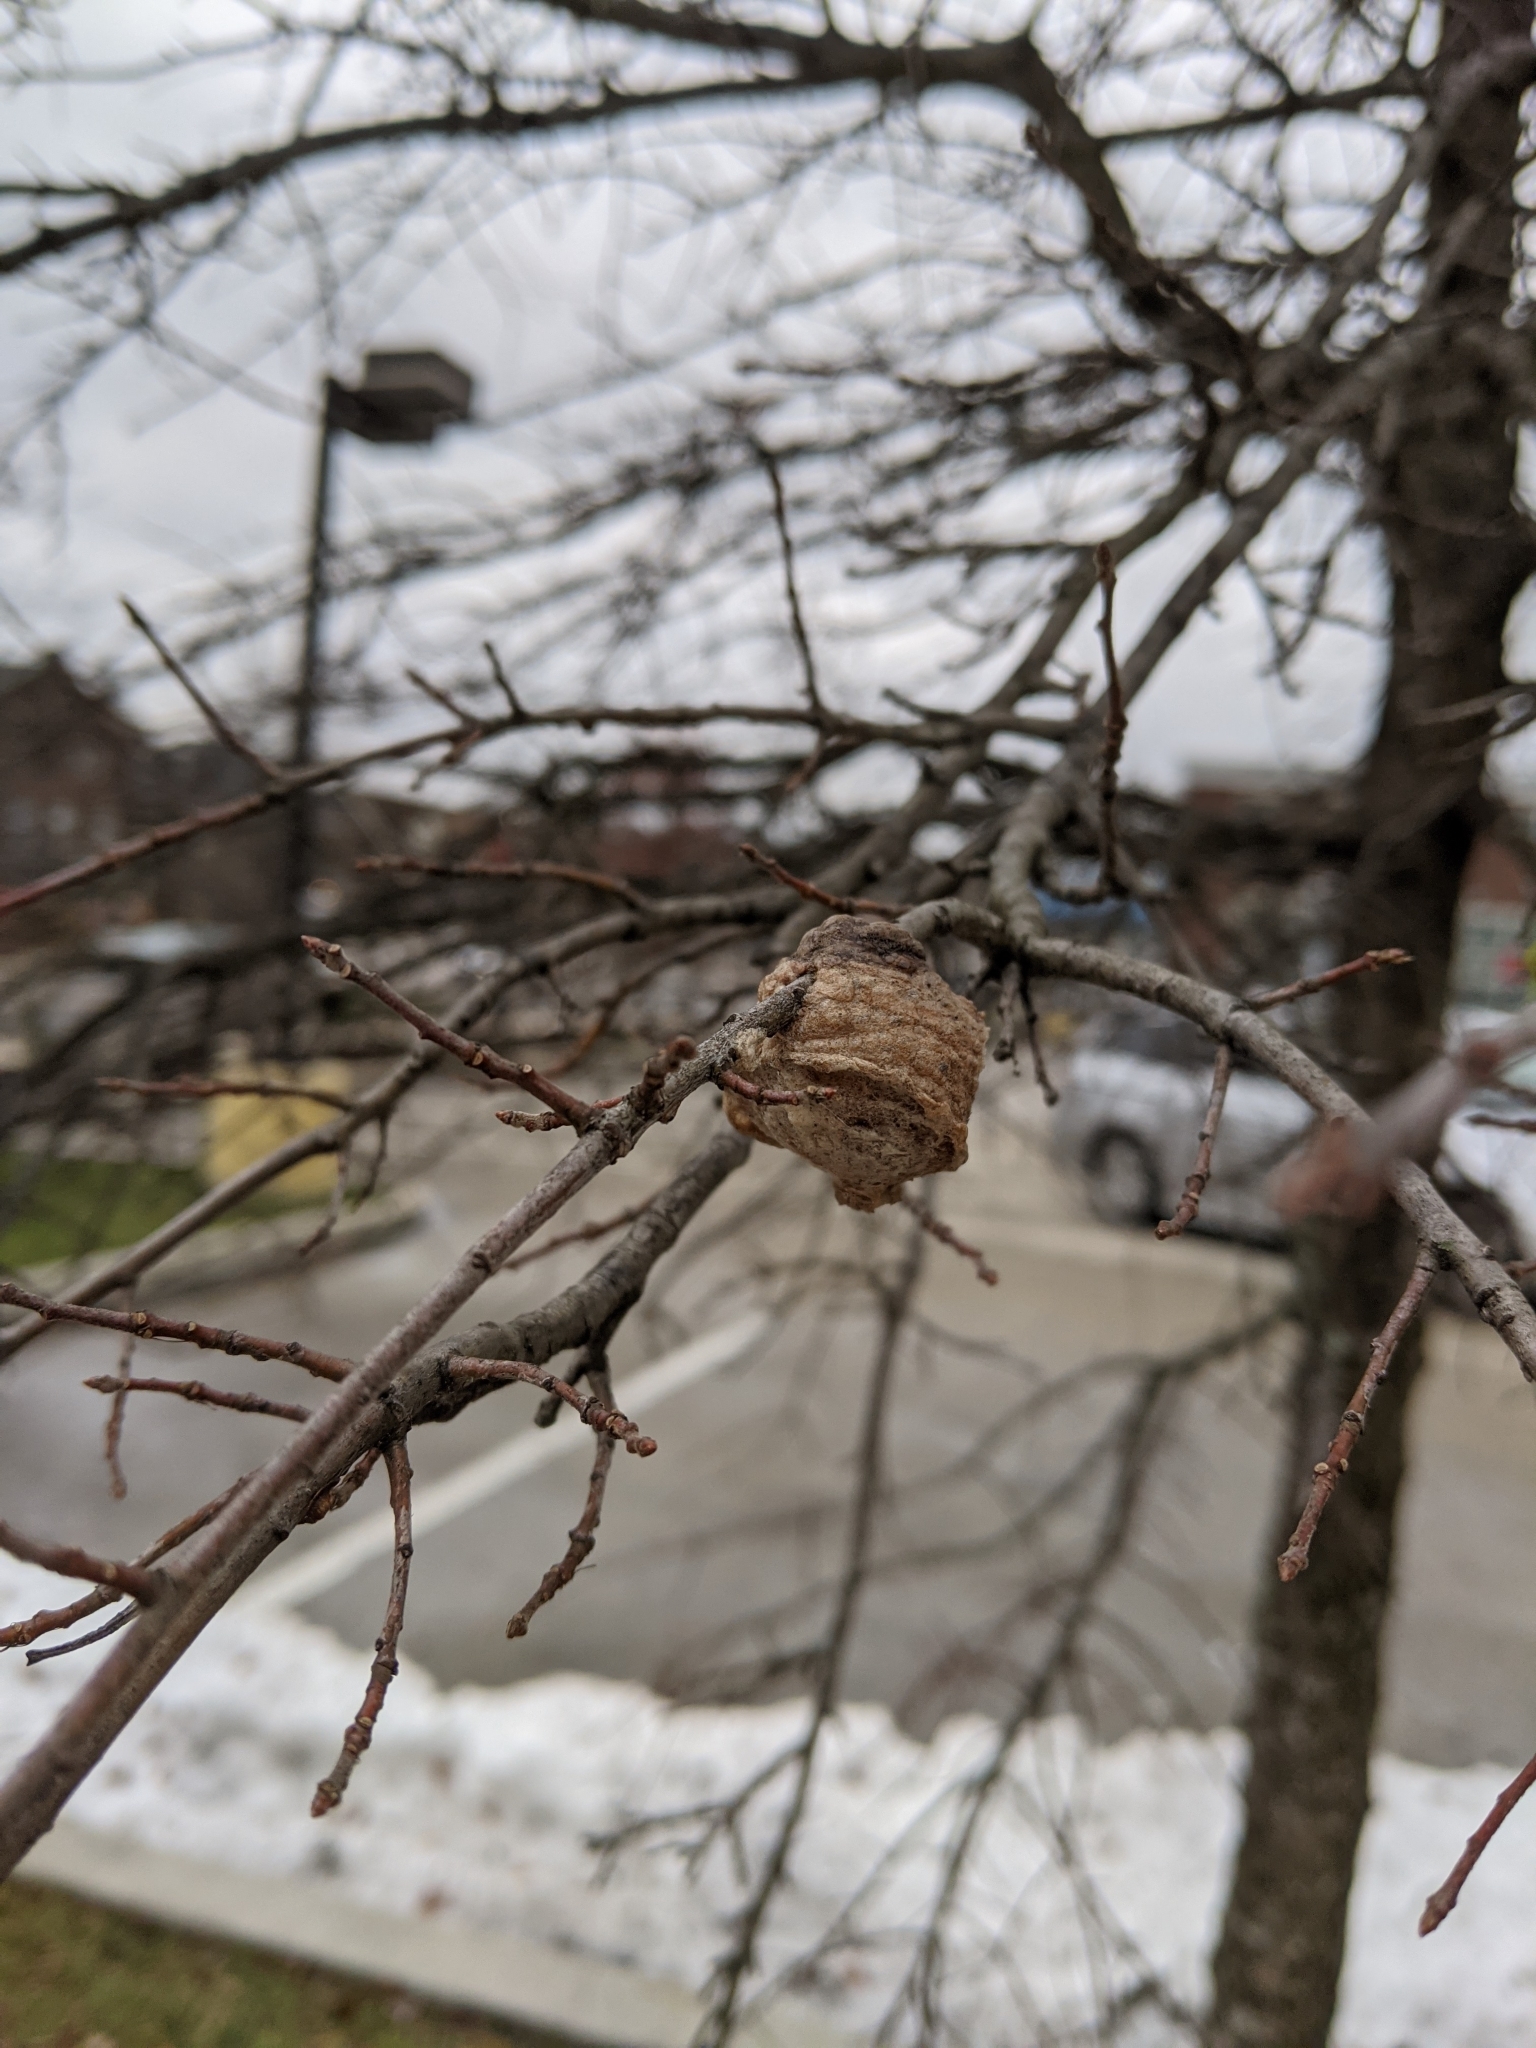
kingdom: Animalia
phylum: Arthropoda
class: Insecta
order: Mantodea
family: Mantidae
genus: Tenodera
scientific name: Tenodera sinensis
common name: Chinese mantis
